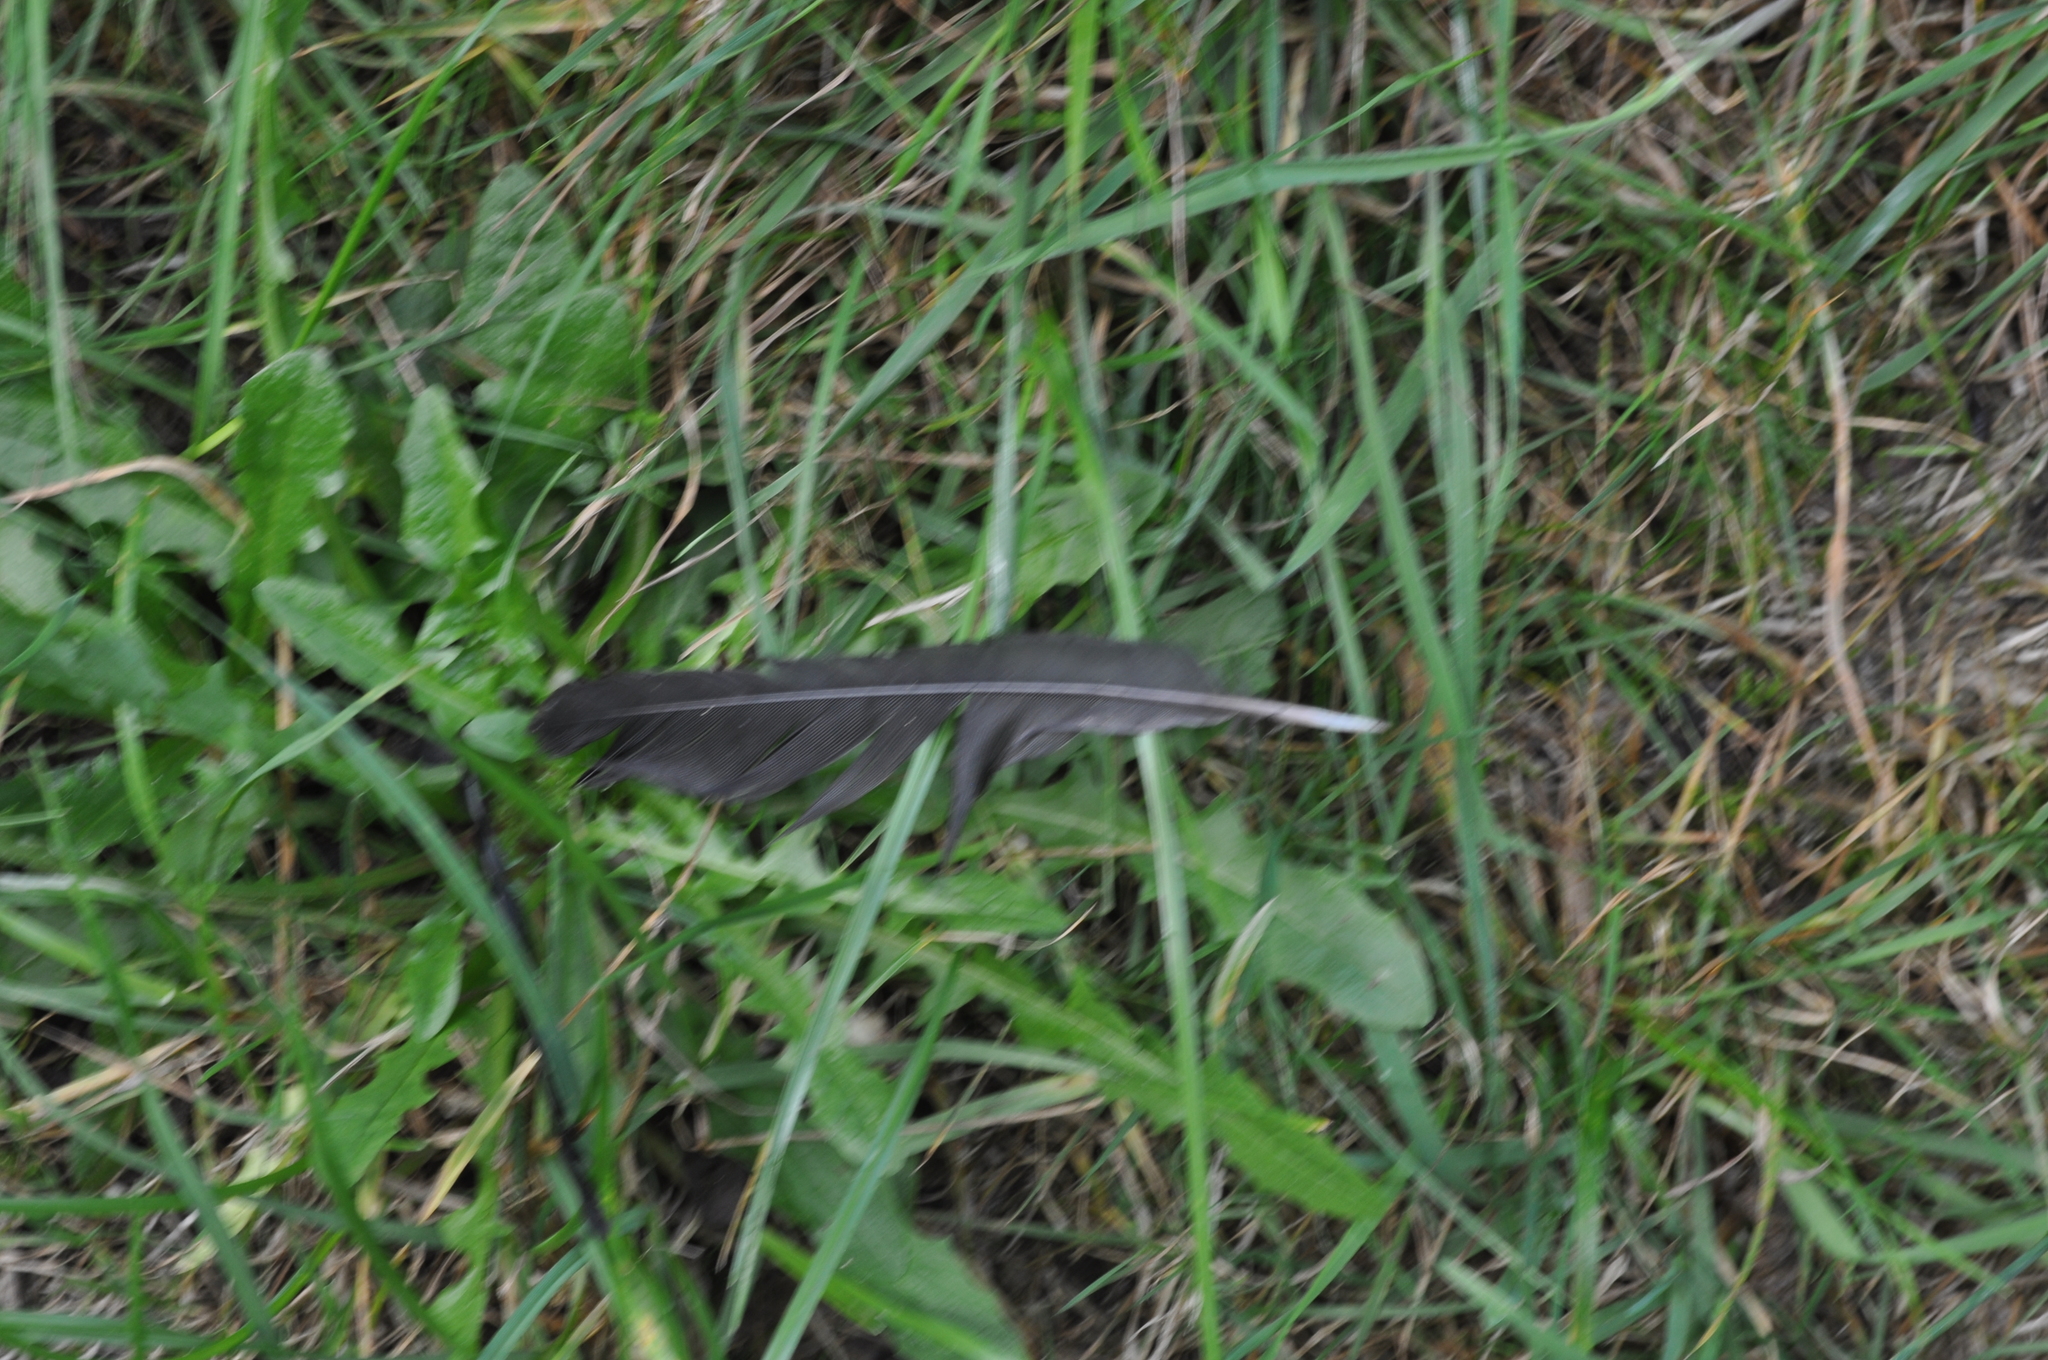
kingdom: Animalia
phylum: Chordata
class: Aves
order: Passeriformes
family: Turdidae
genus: Turdus
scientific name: Turdus merula
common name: Common blackbird
